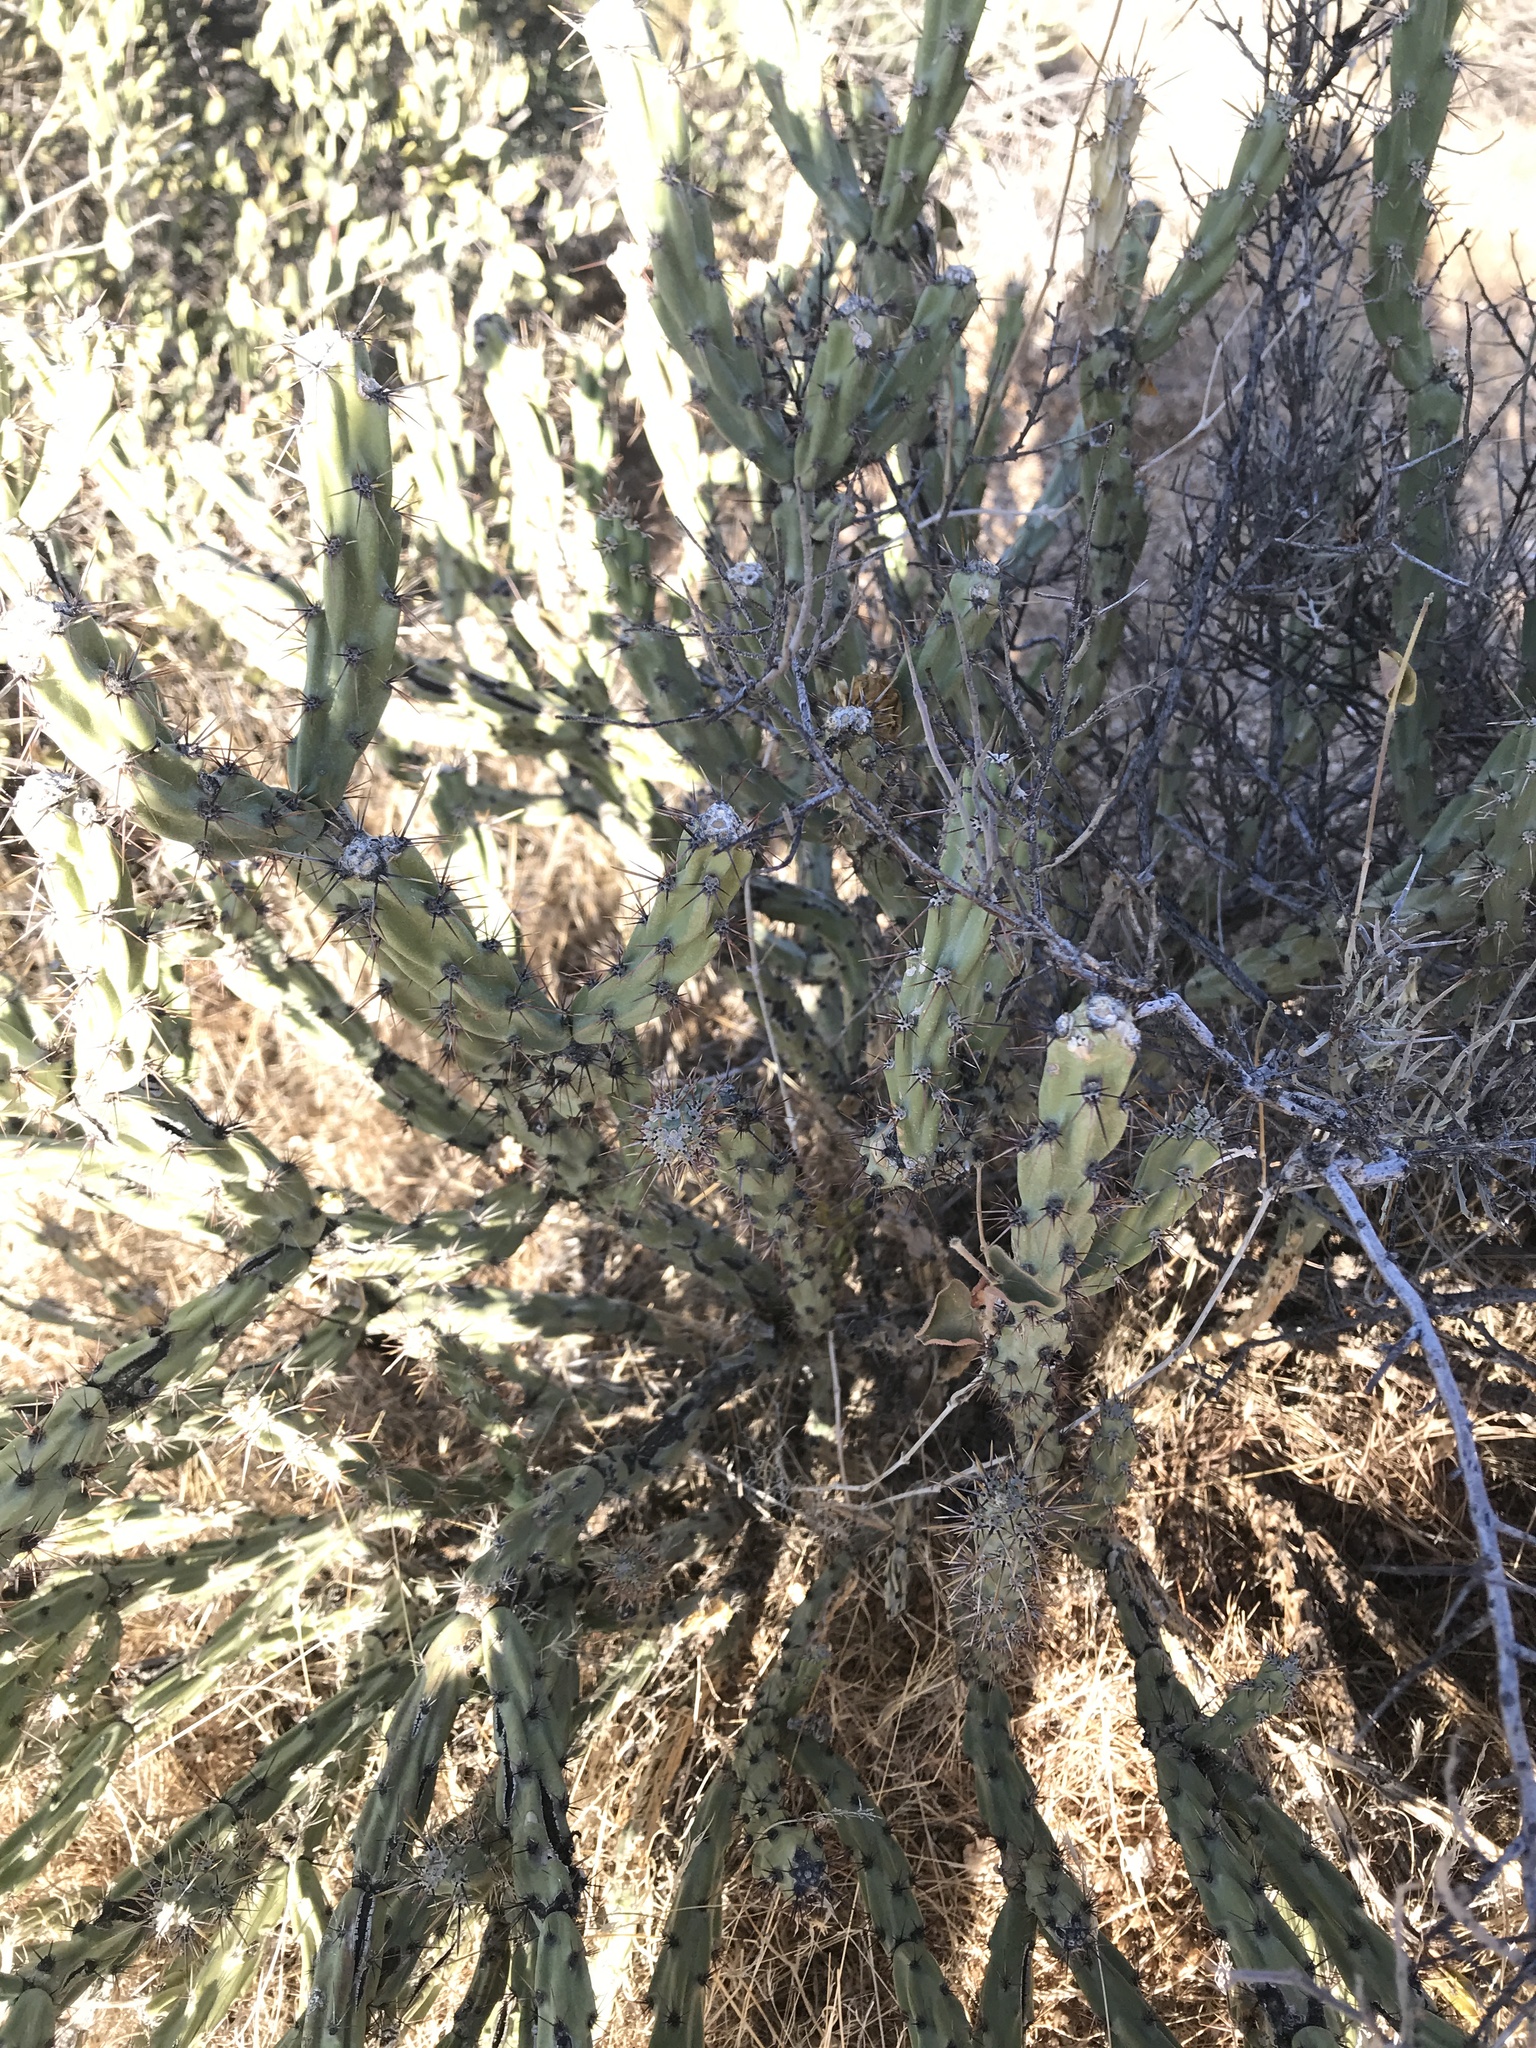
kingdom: Plantae
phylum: Tracheophyta
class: Magnoliopsida
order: Caryophyllales
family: Cactaceae
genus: Cylindropuntia
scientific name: Cylindropuntia acanthocarpa
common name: Buckhorn cholla
